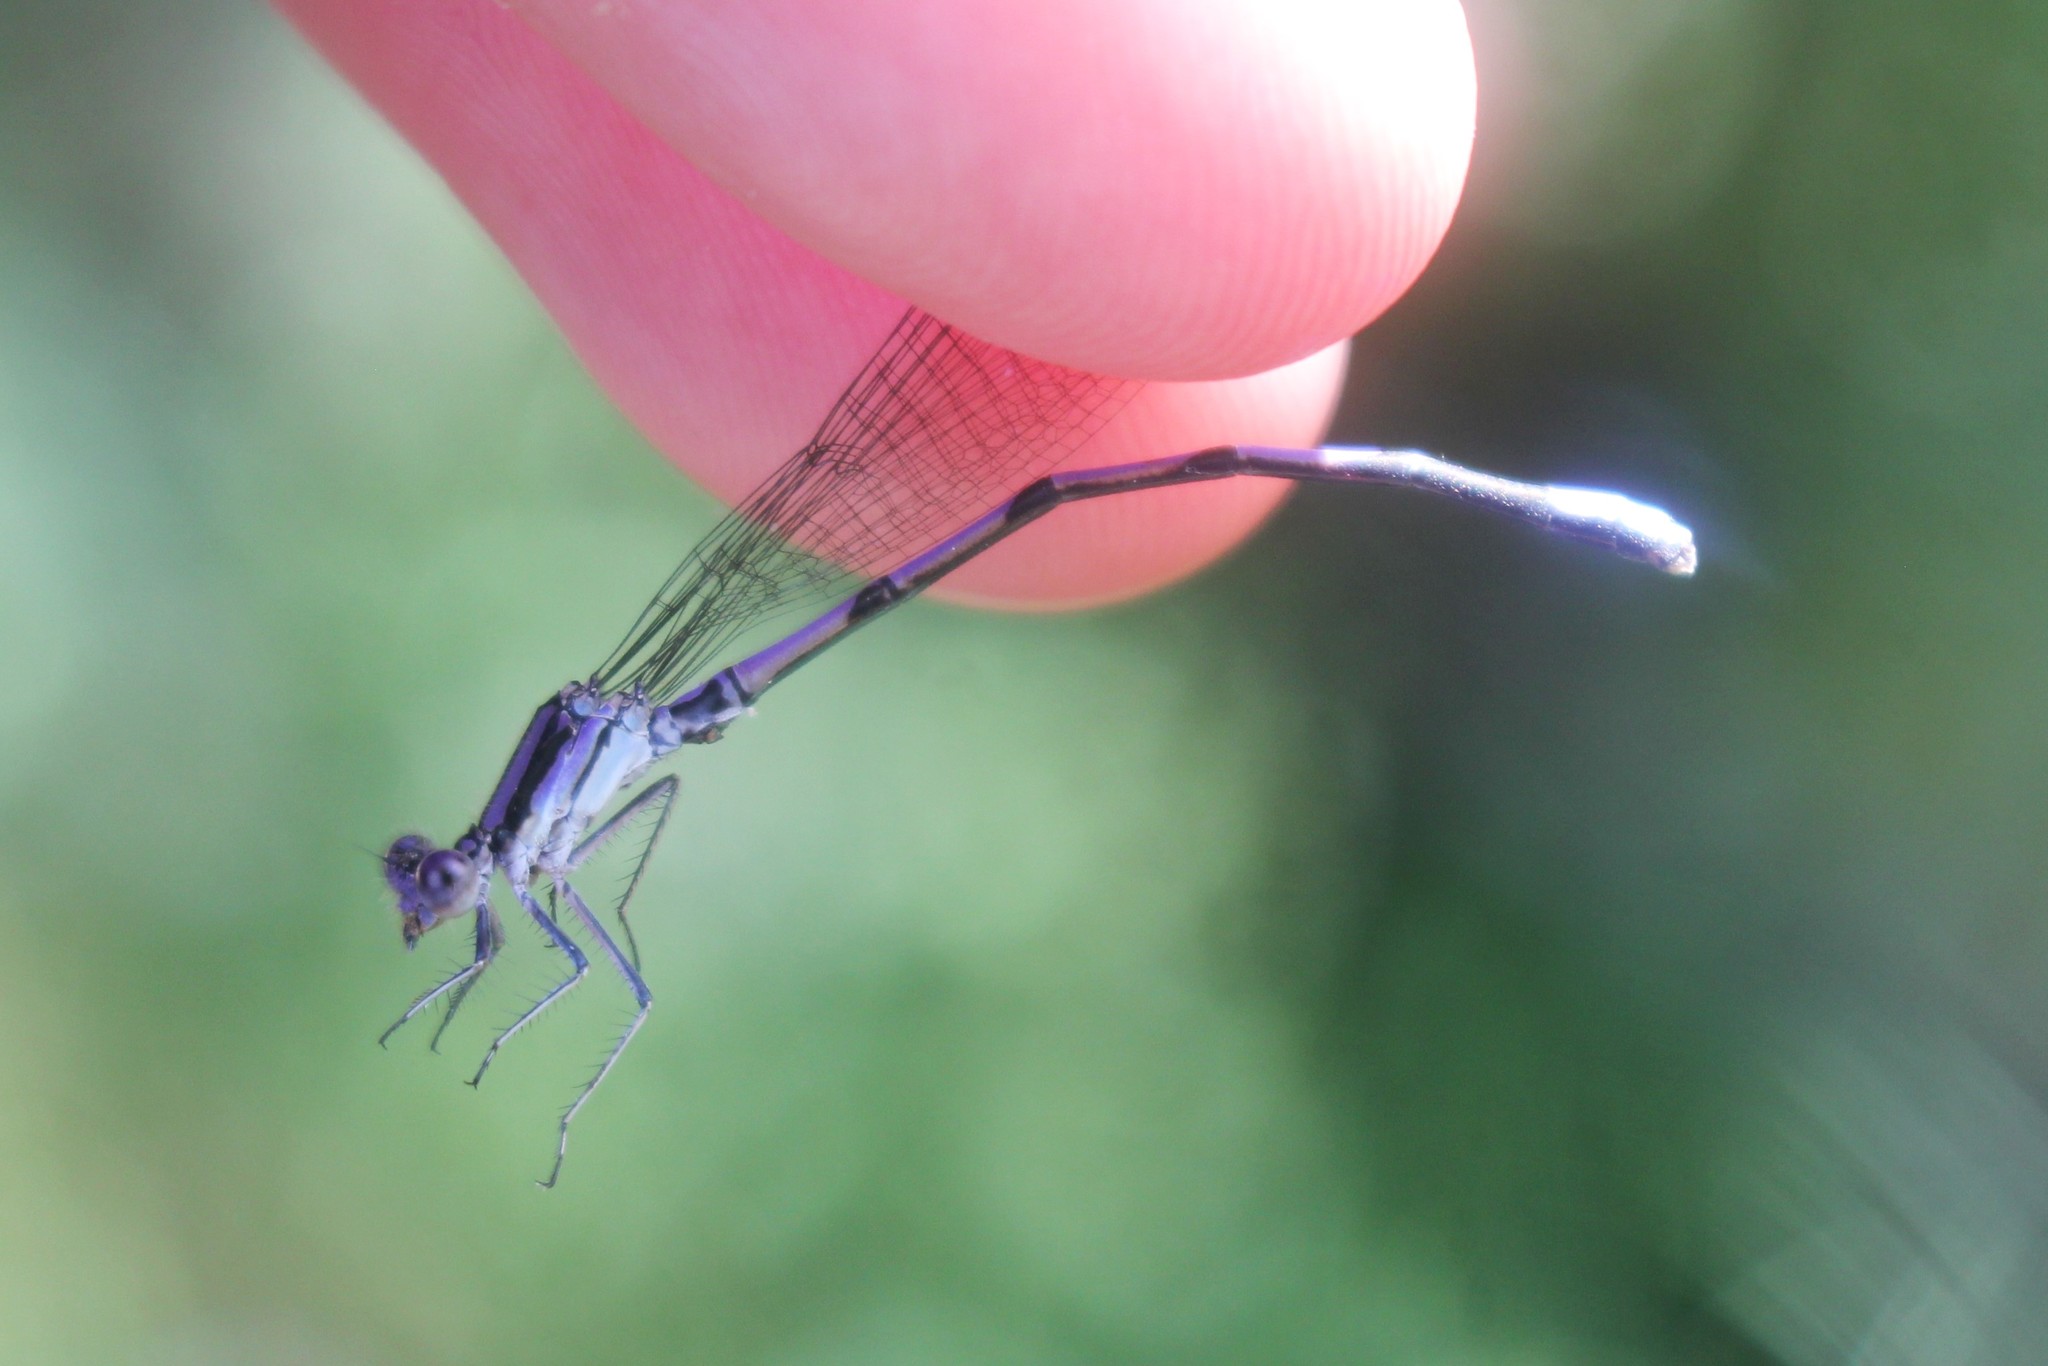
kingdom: Animalia
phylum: Arthropoda
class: Insecta
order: Odonata
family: Coenagrionidae
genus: Argia
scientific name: Argia fumipennis
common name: Variable dancer
